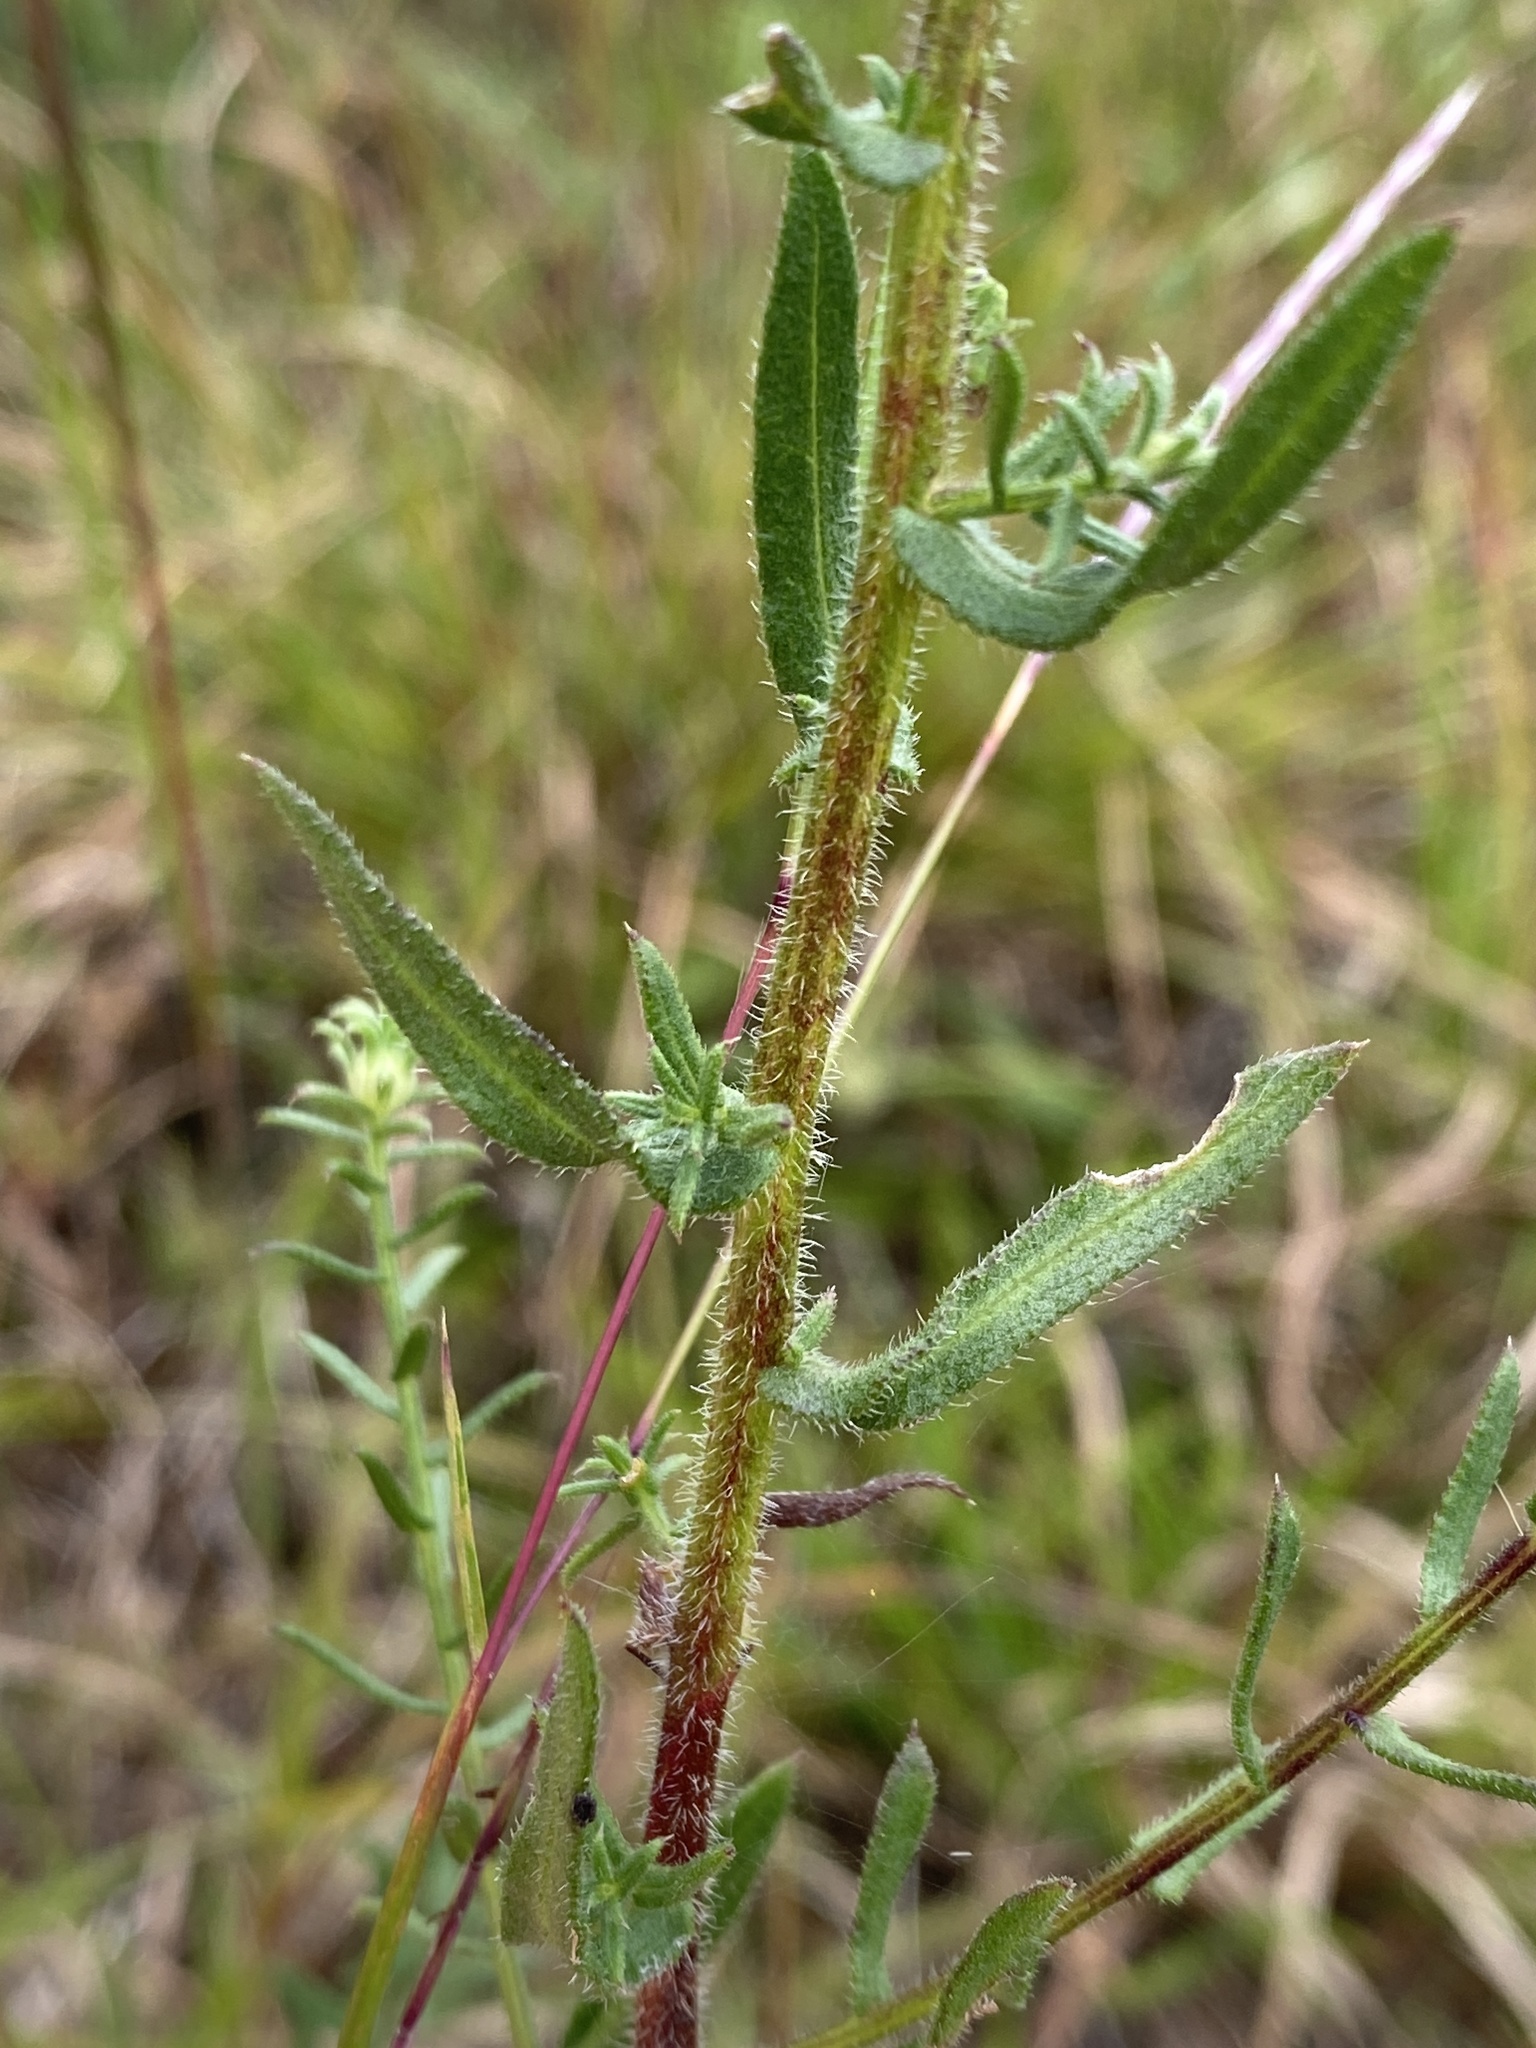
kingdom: Plantae
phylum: Tracheophyta
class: Magnoliopsida
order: Asterales
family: Asteraceae
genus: Symphyotrichum
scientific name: Symphyotrichum grandiflorum
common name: Big-head aster
